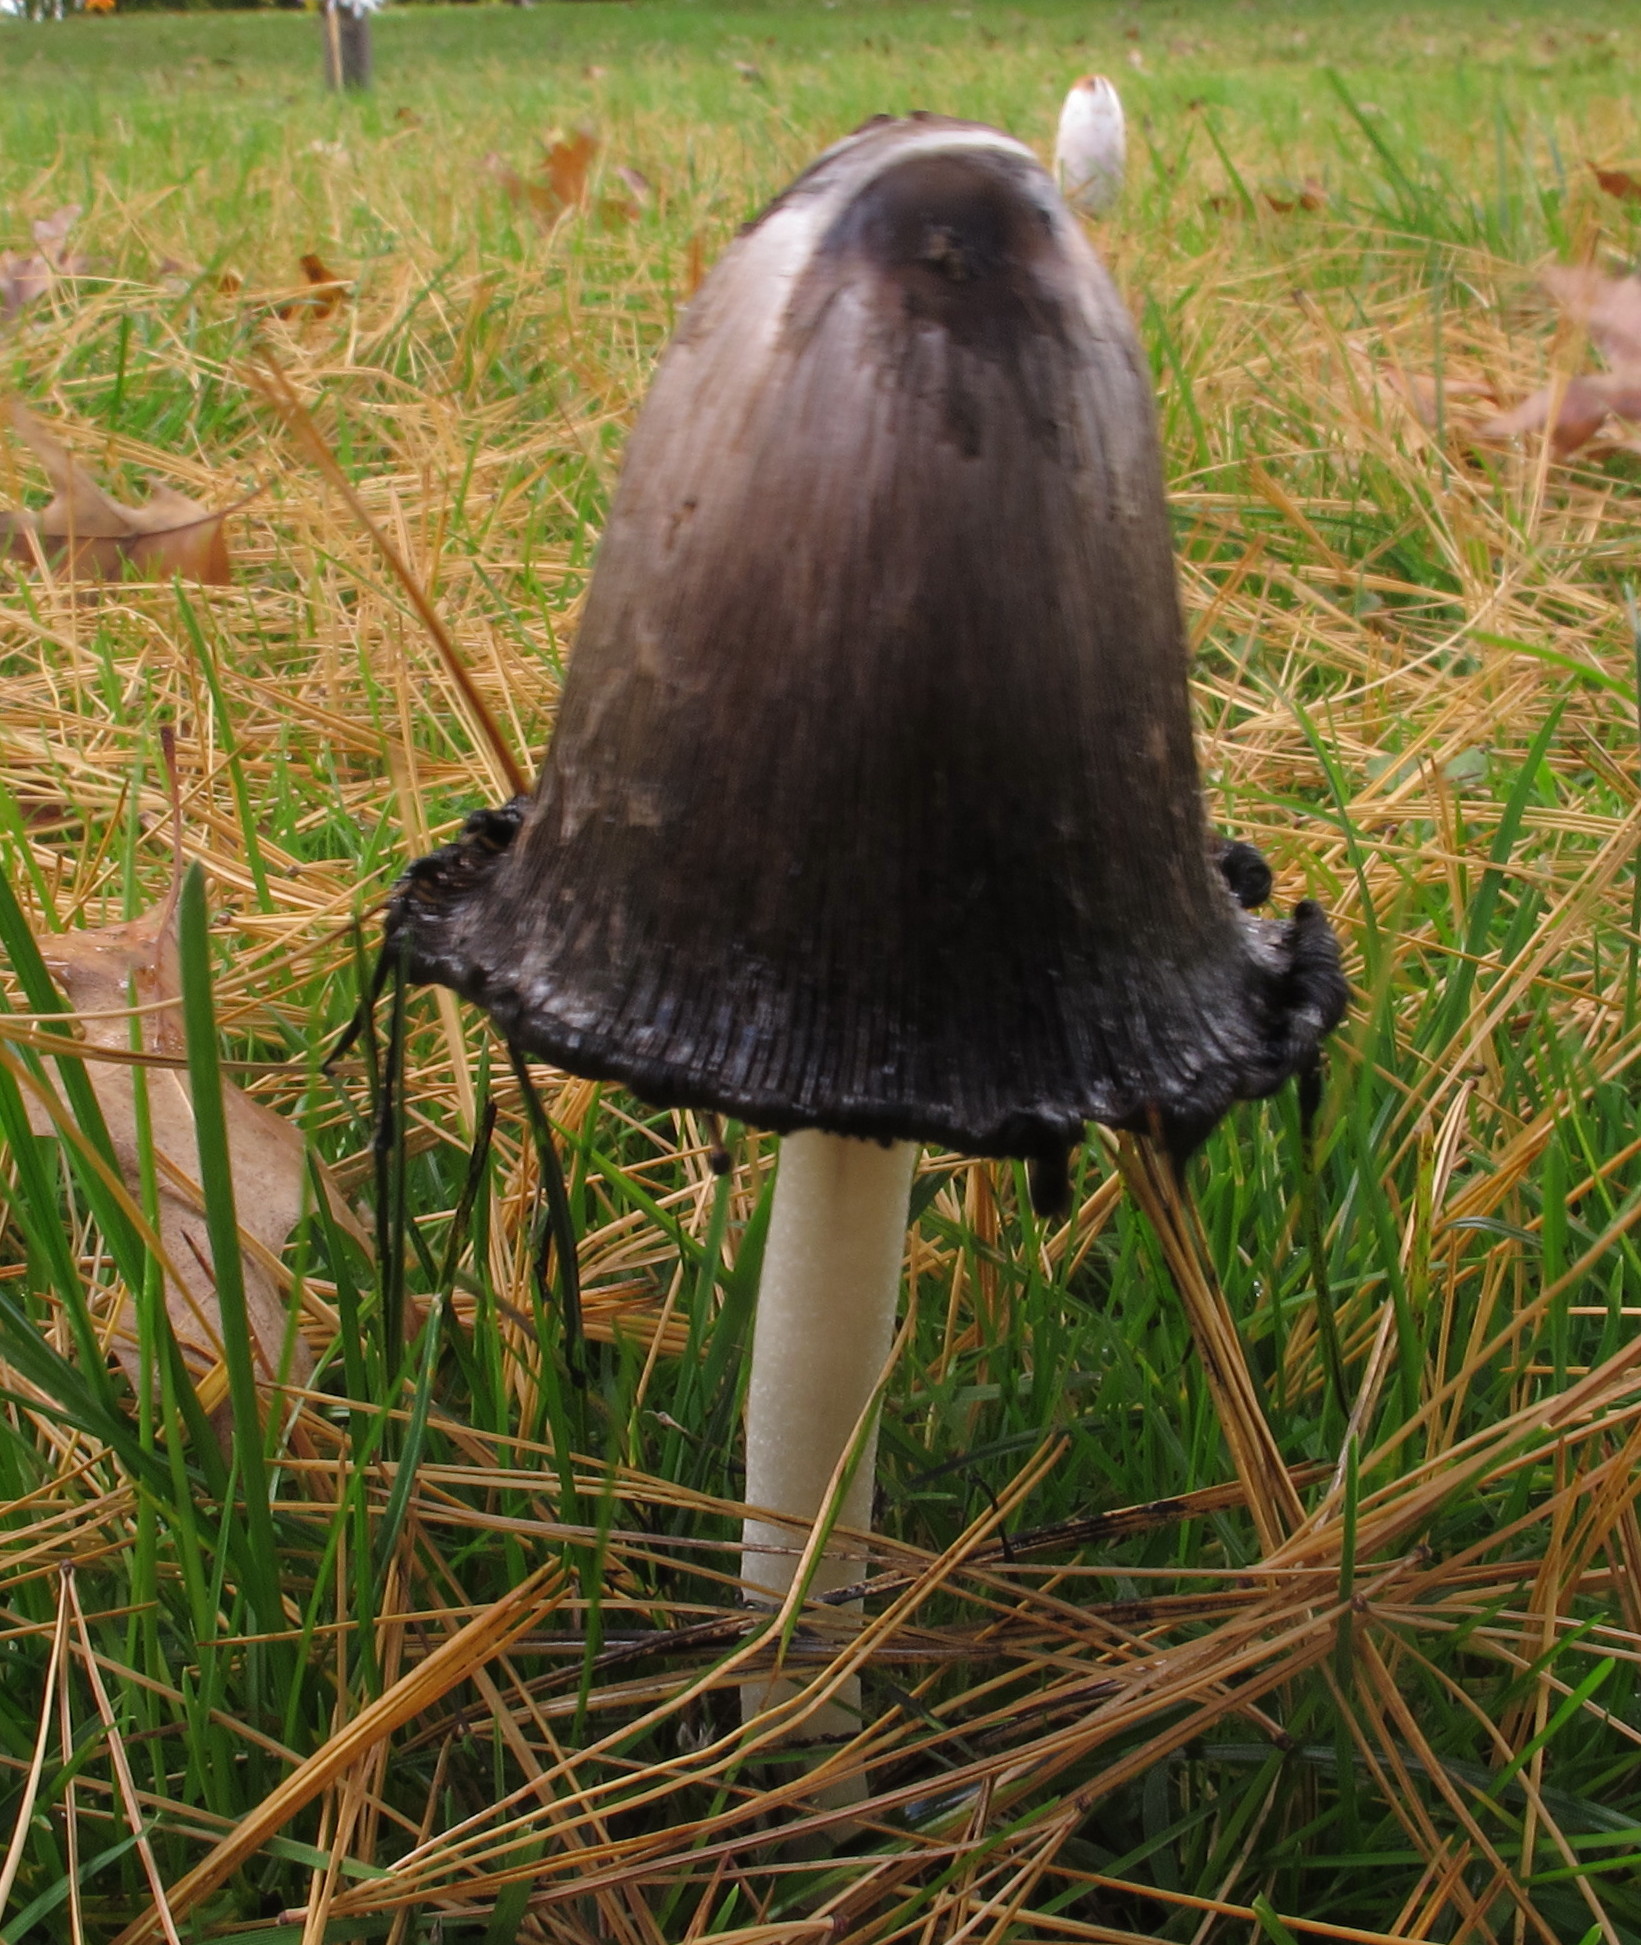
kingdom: Fungi
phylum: Basidiomycota
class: Agaricomycetes
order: Agaricales
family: Agaricaceae
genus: Coprinus
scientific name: Coprinus comatus
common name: Lawyer's wig
